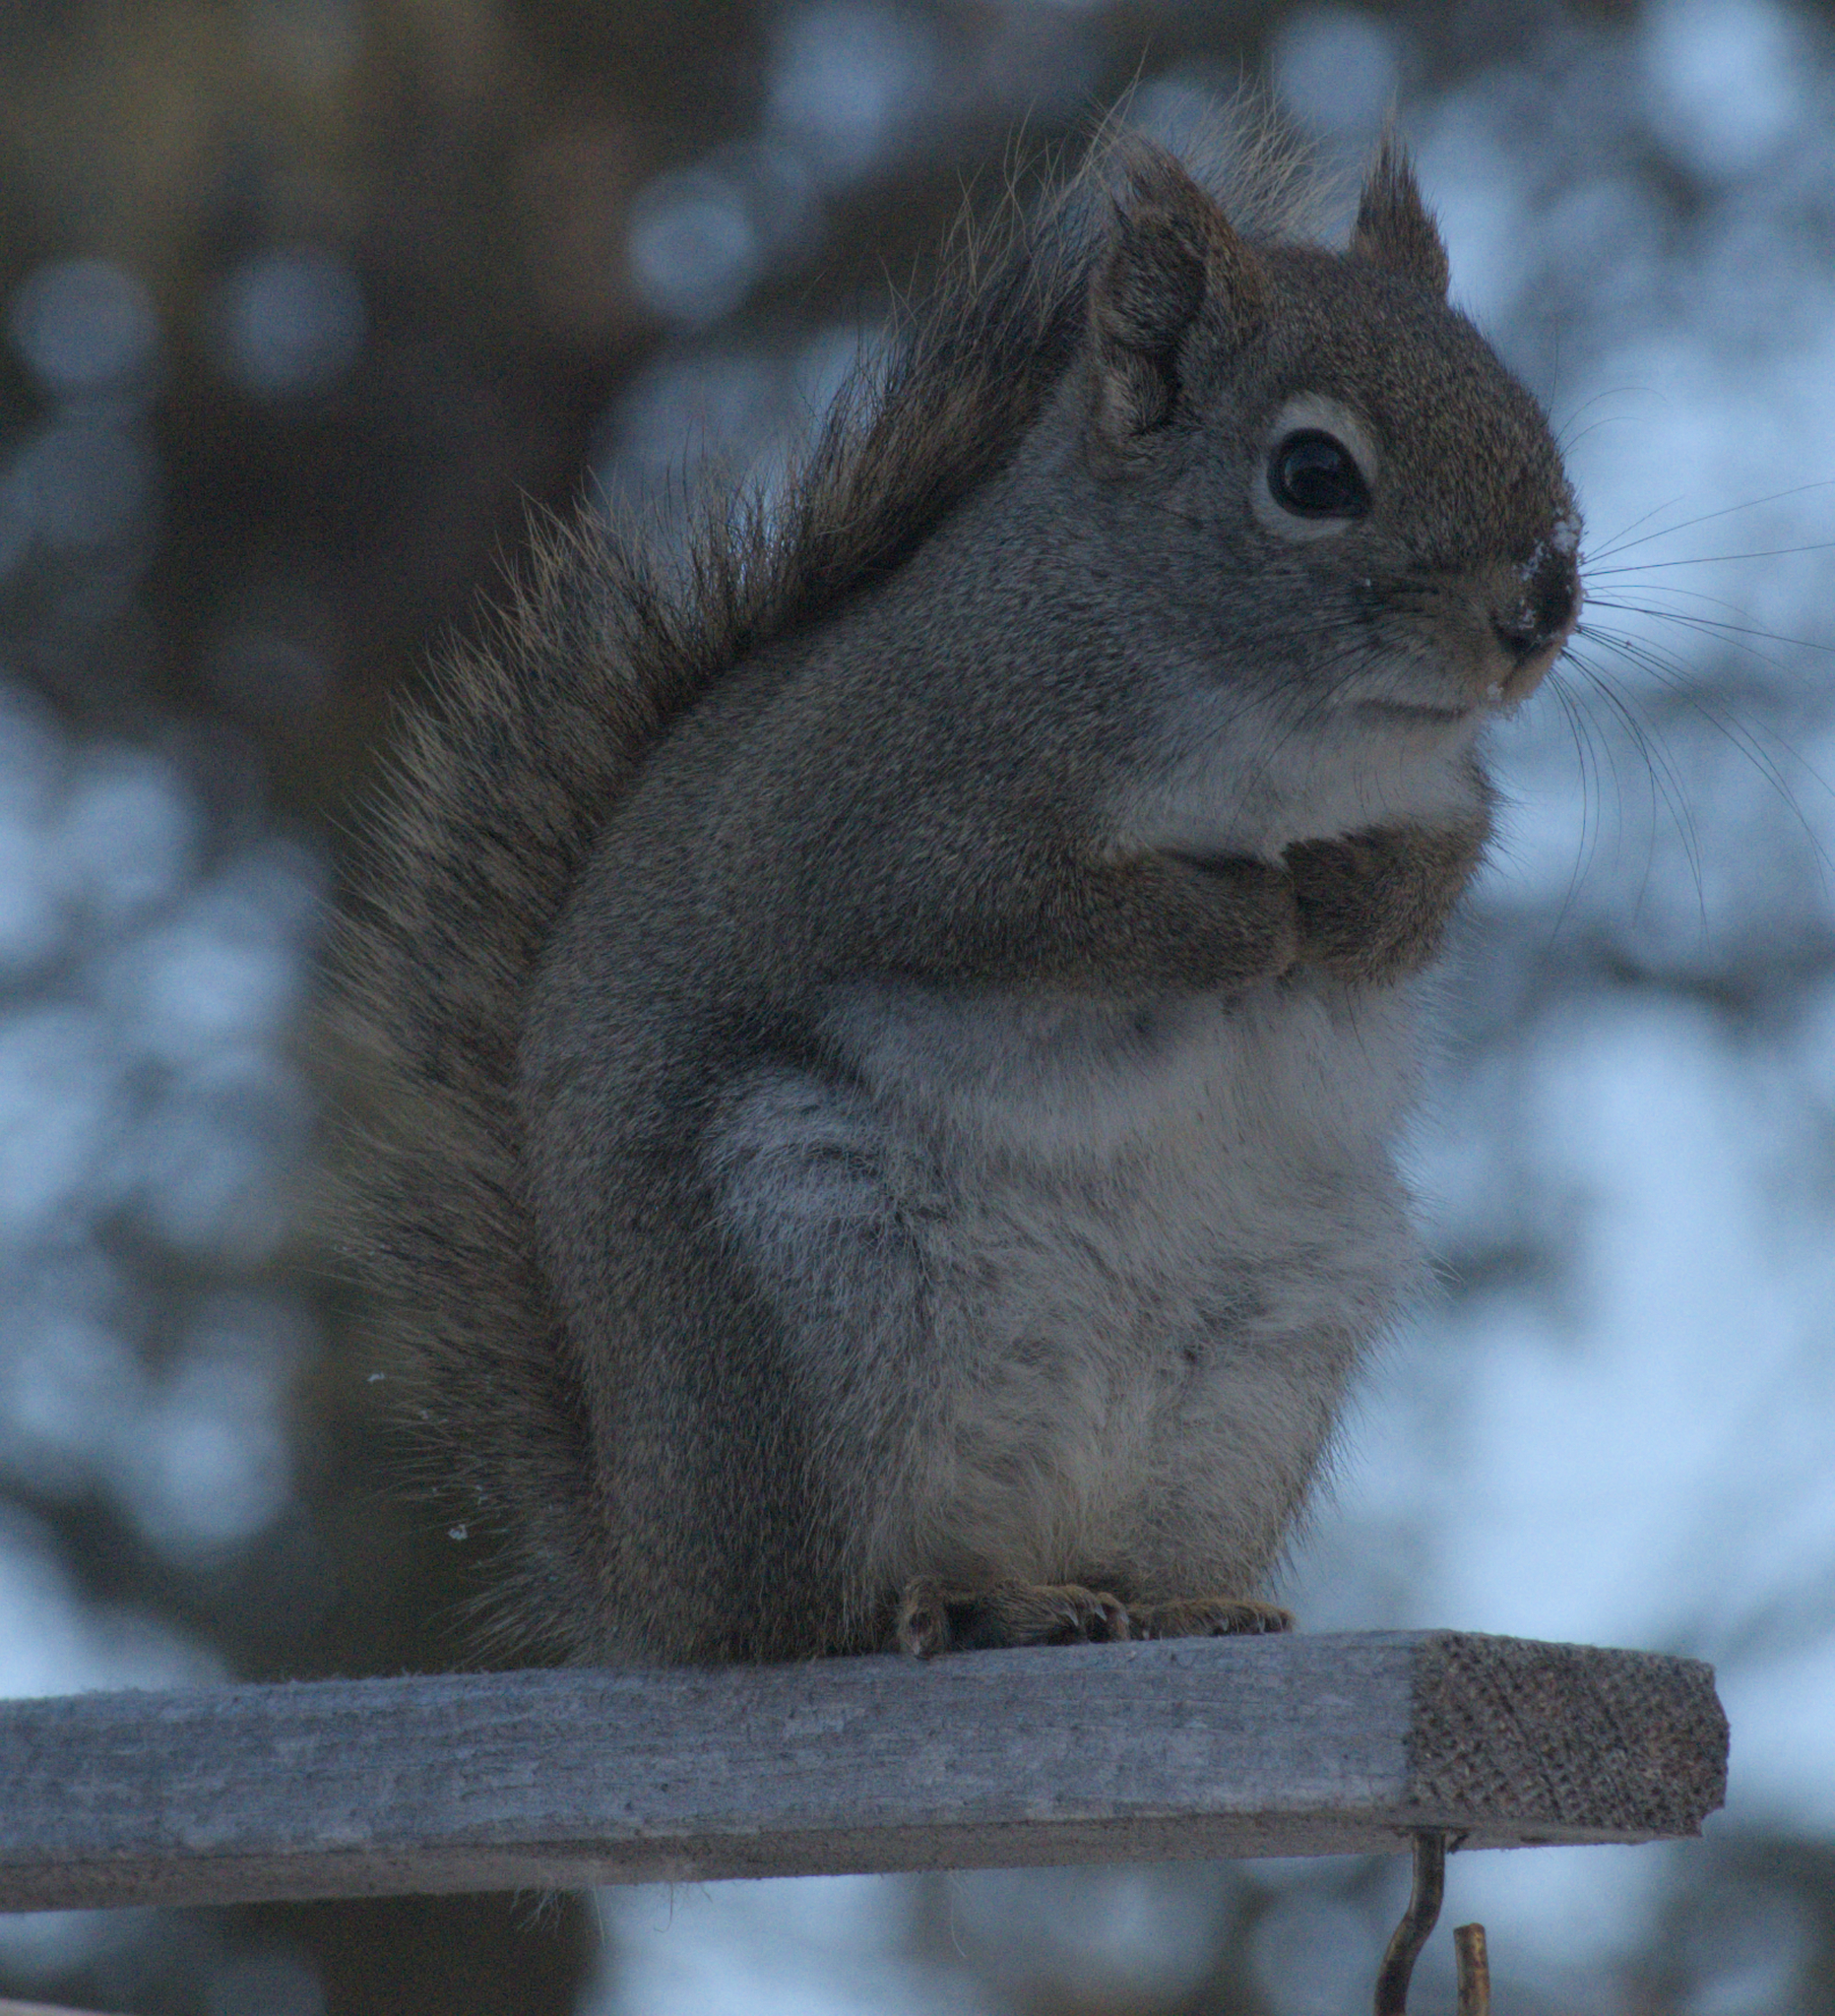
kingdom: Animalia
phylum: Chordata
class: Mammalia
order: Rodentia
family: Sciuridae
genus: Tamiasciurus
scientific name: Tamiasciurus hudsonicus
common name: Red squirrel
